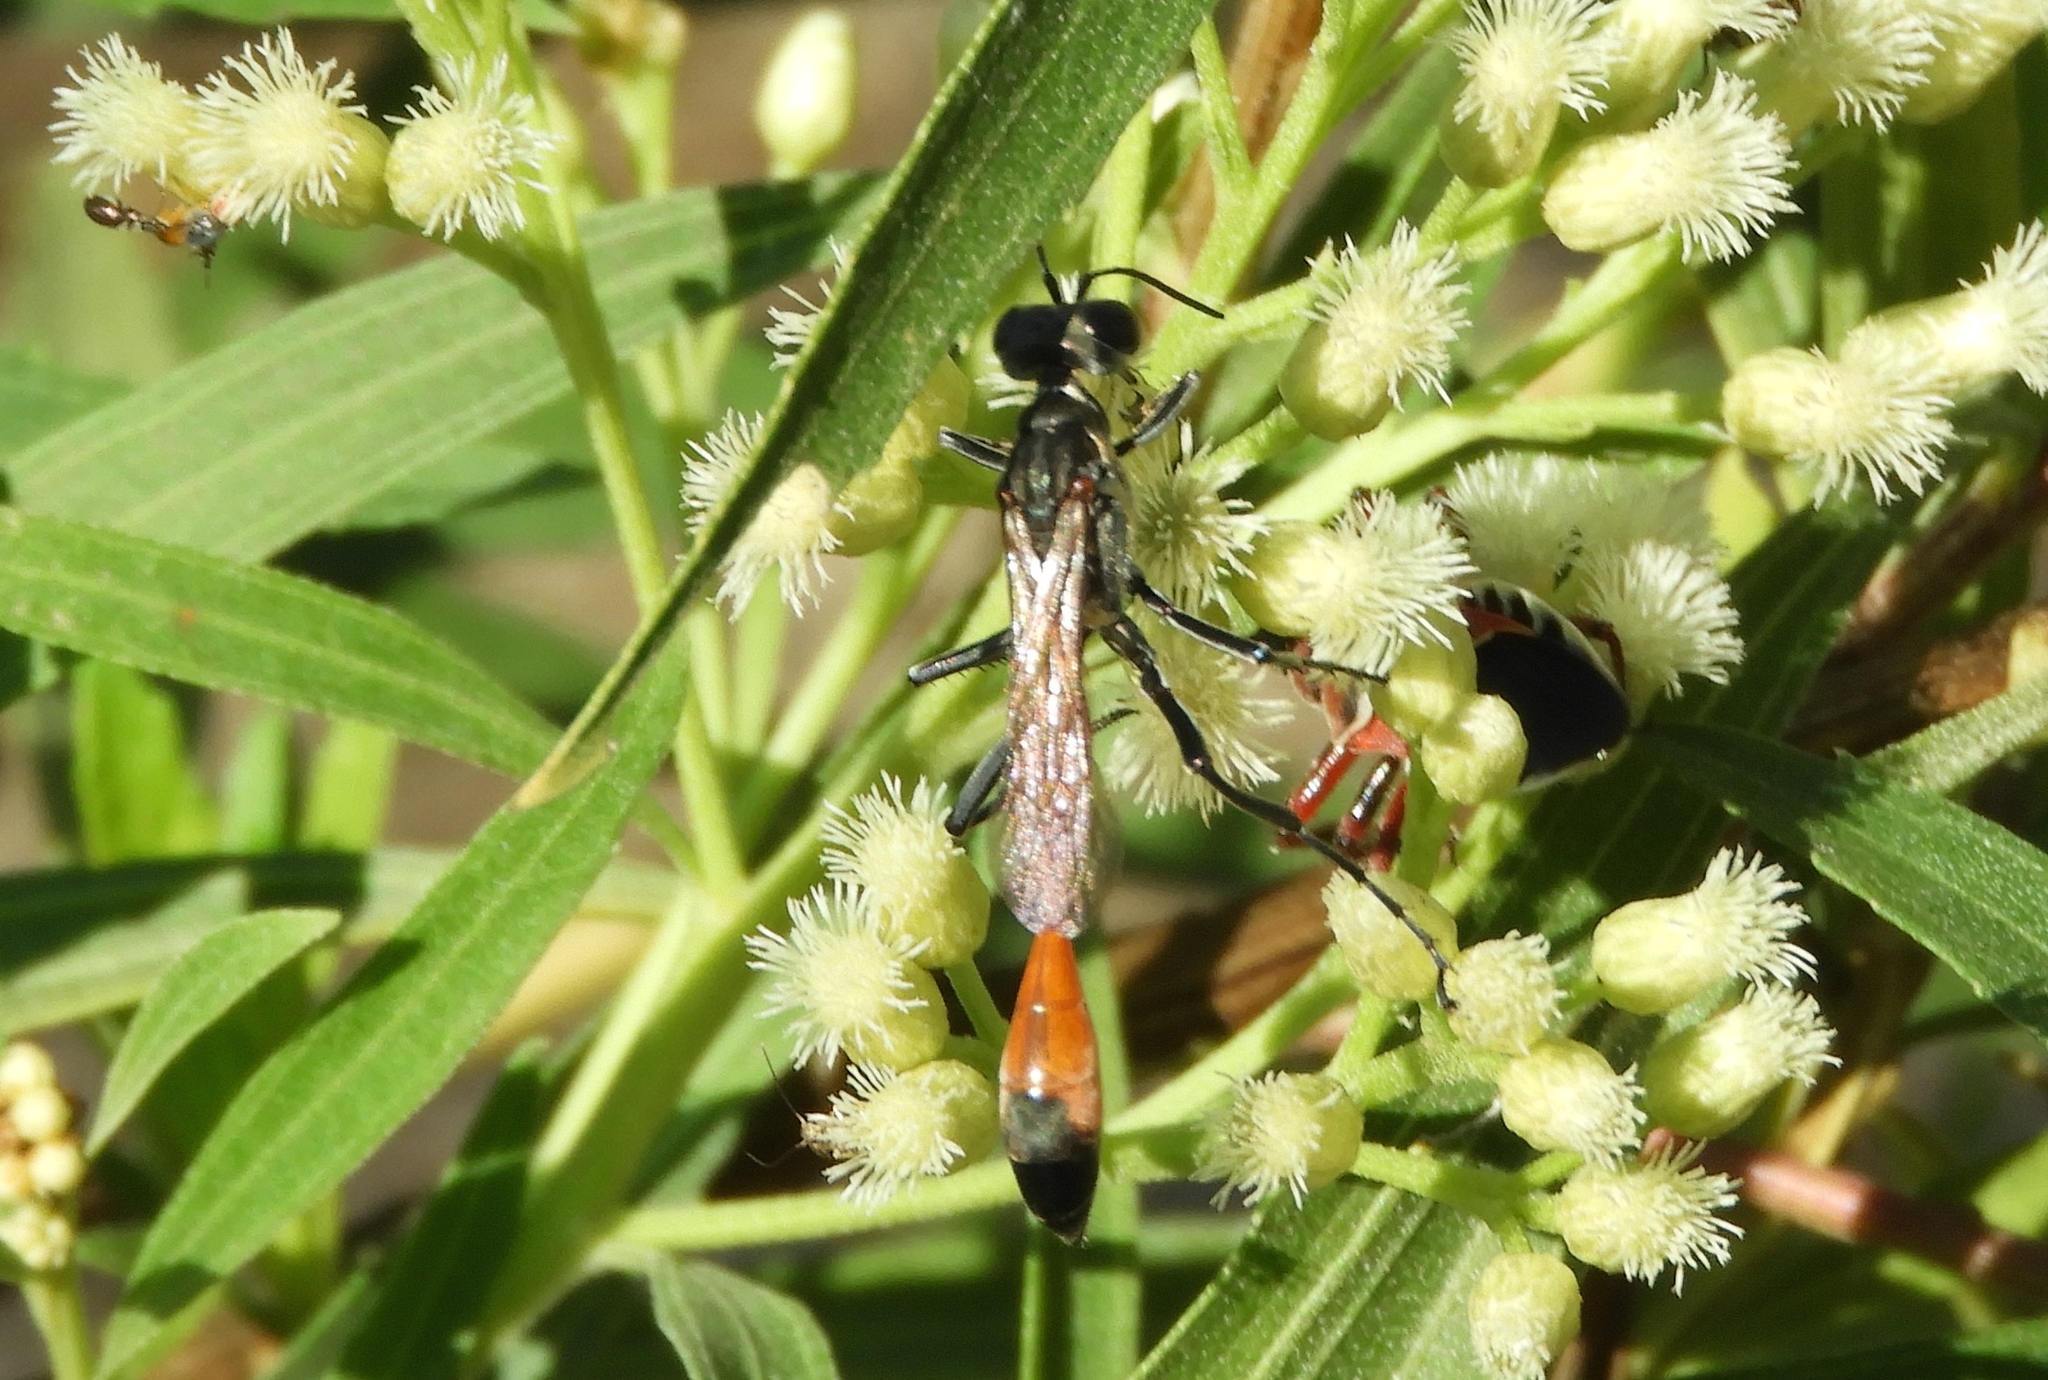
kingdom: Animalia
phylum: Arthropoda
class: Insecta
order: Hymenoptera
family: Sphecidae
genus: Ammophila
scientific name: Ammophila
